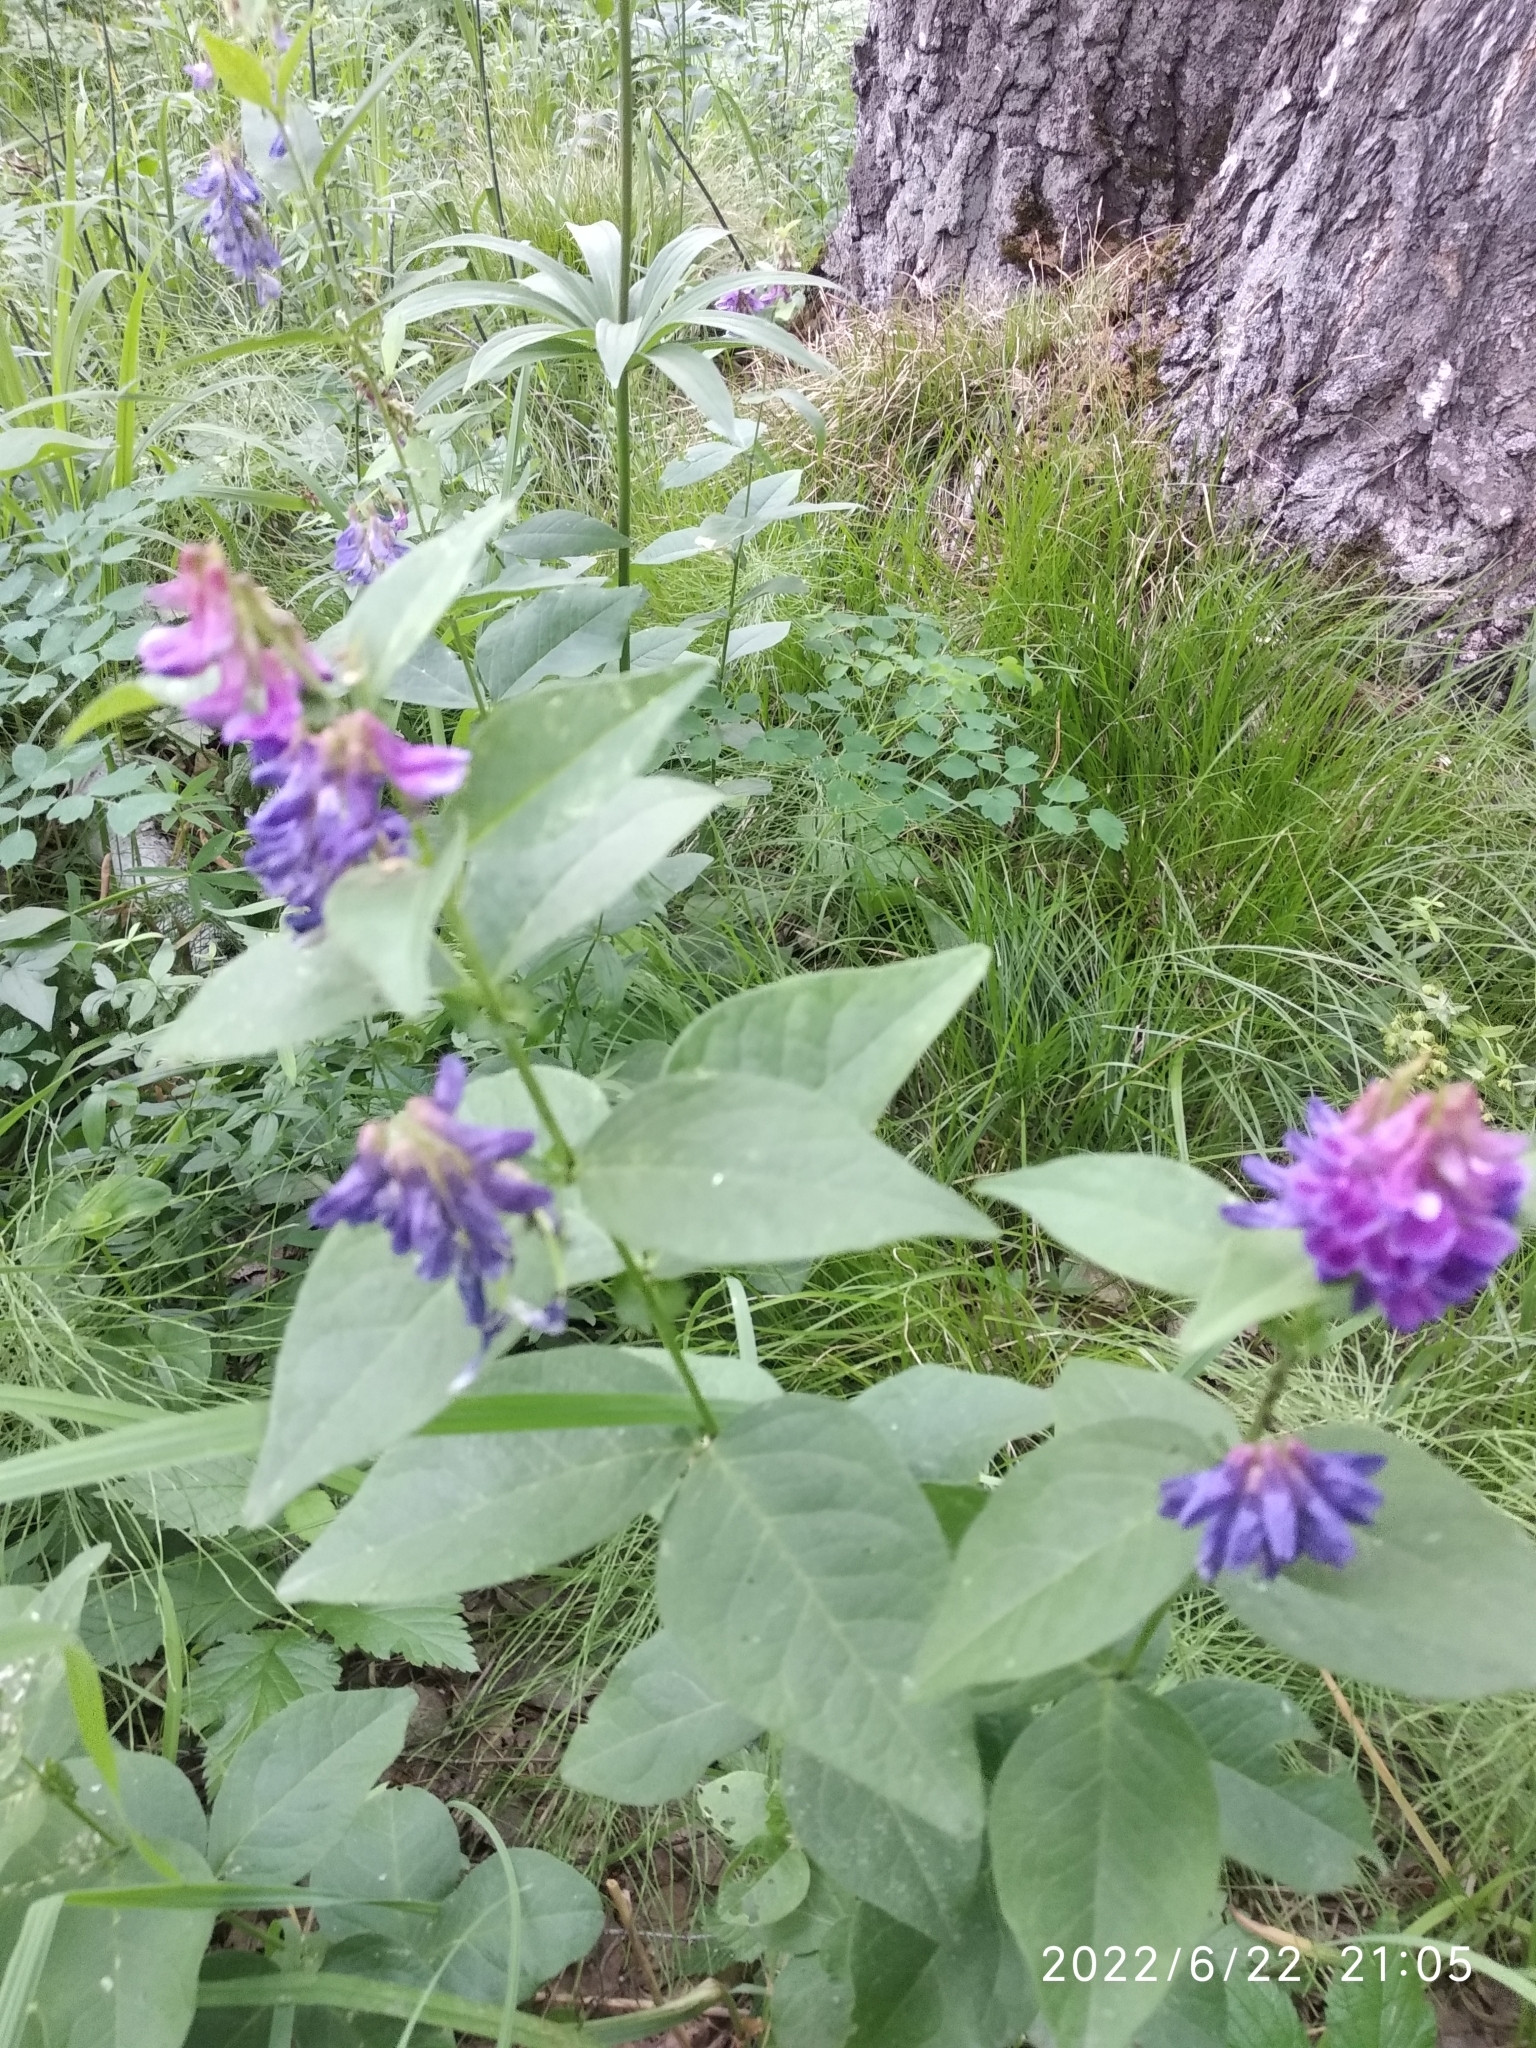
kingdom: Plantae
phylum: Tracheophyta
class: Magnoliopsida
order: Fabales
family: Fabaceae
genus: Vicia
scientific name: Vicia unijuga
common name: Two-leaf vetch
